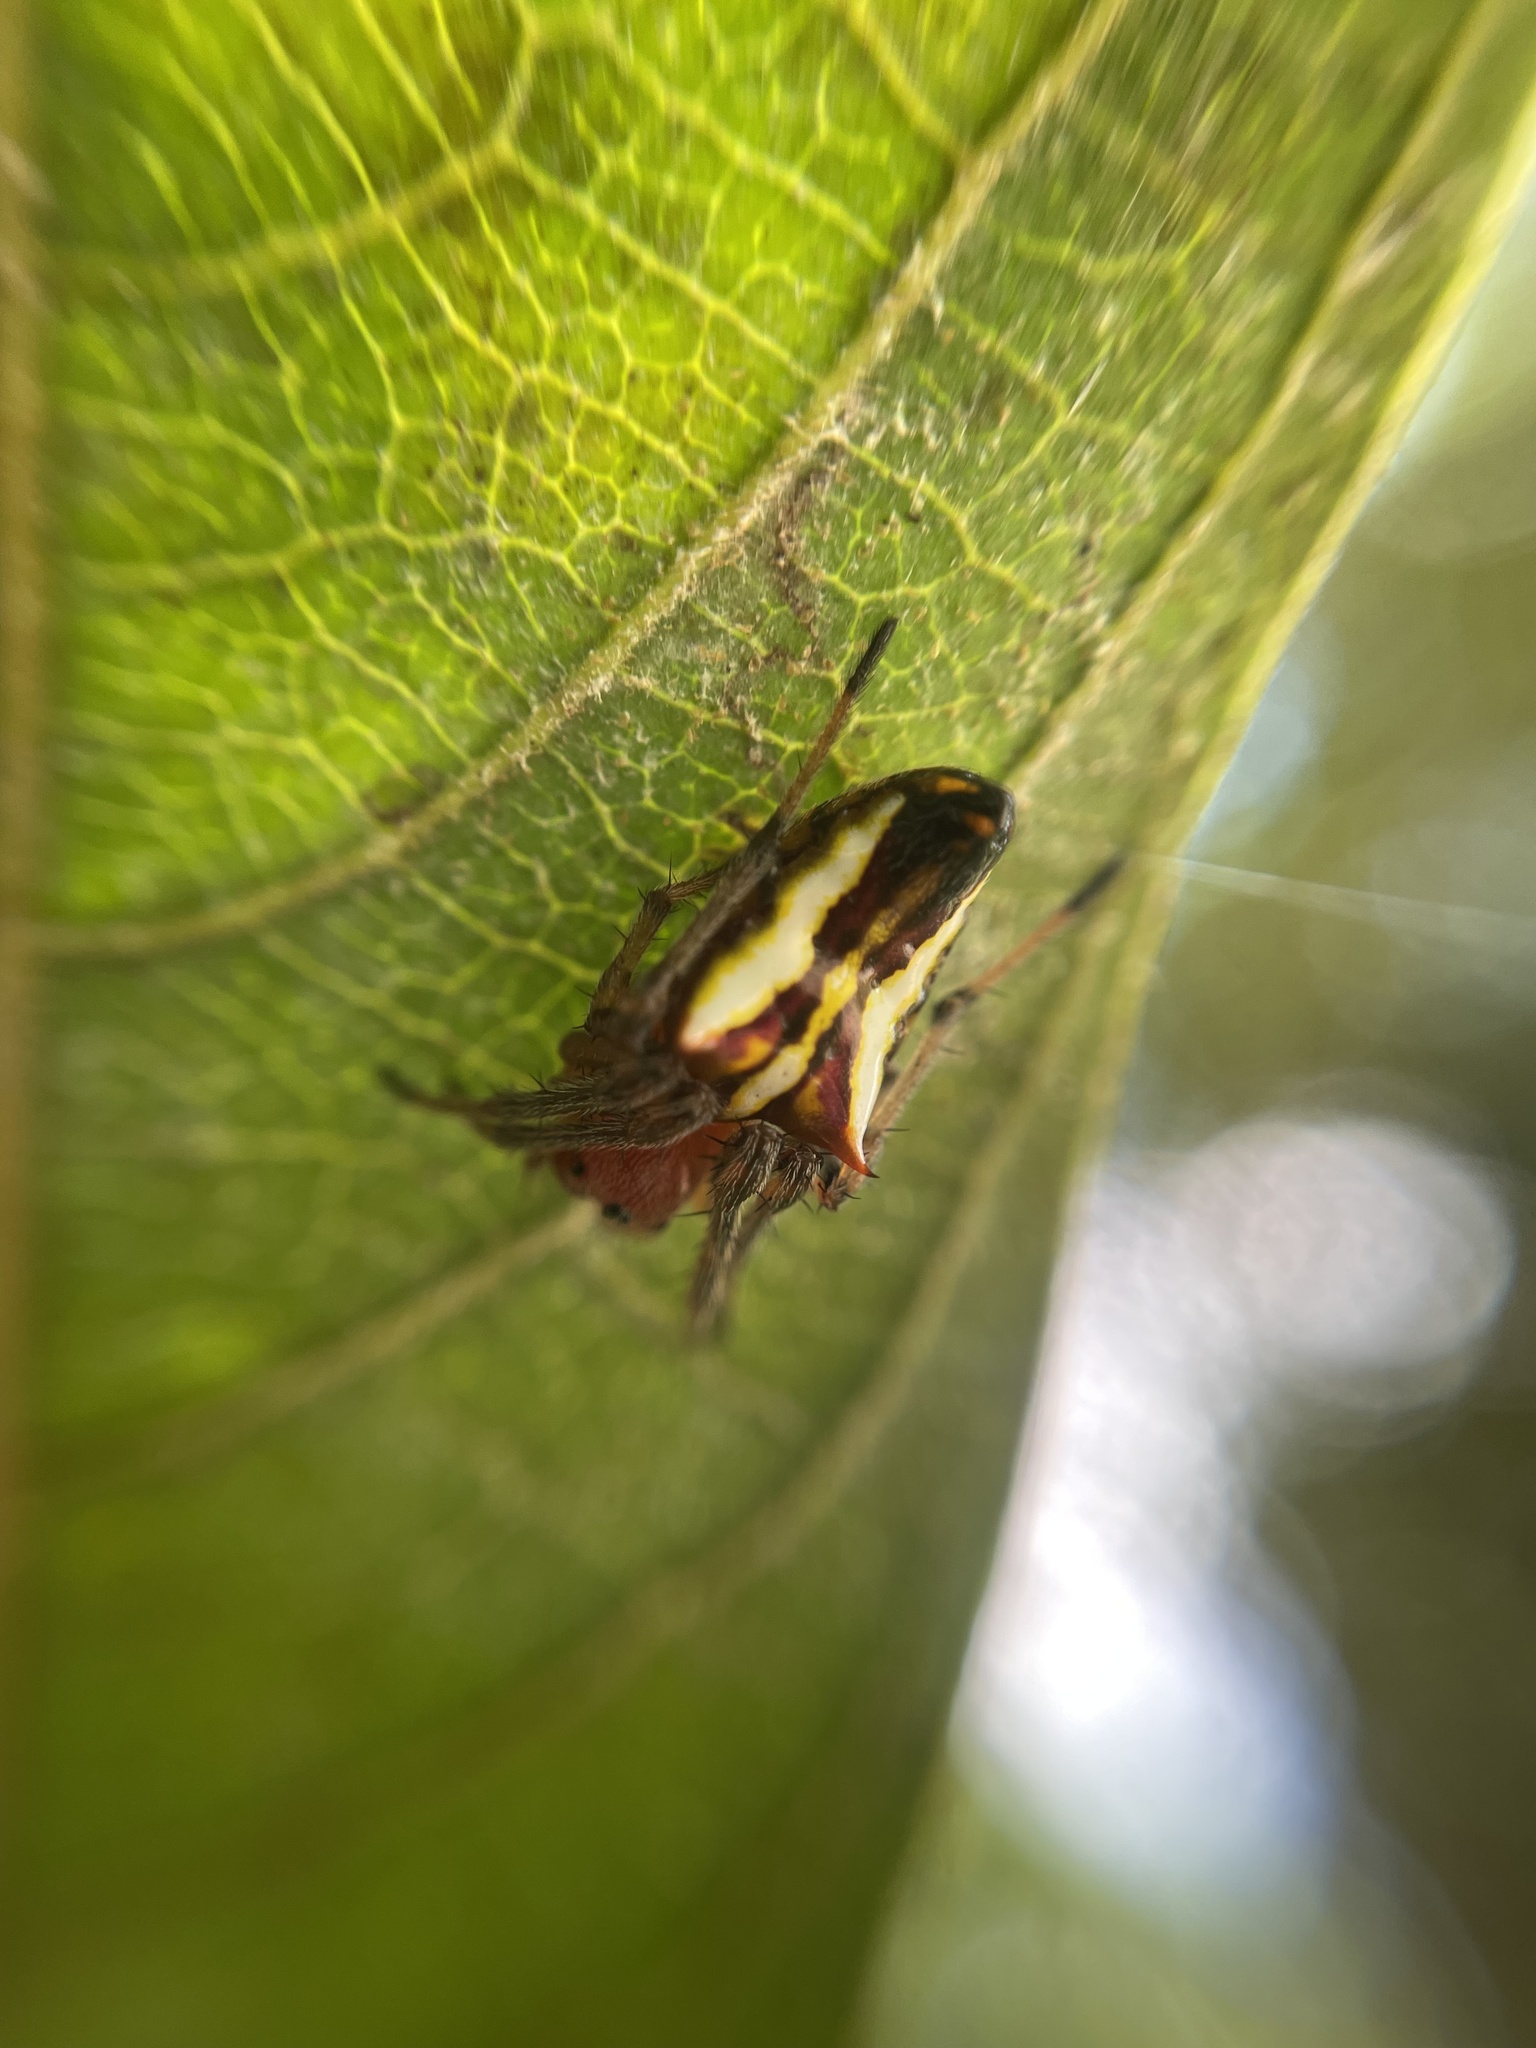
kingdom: Animalia
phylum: Arthropoda
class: Arachnida
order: Araneae
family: Araneidae
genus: Alpaida
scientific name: Alpaida bicornuta
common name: Orb weavers
